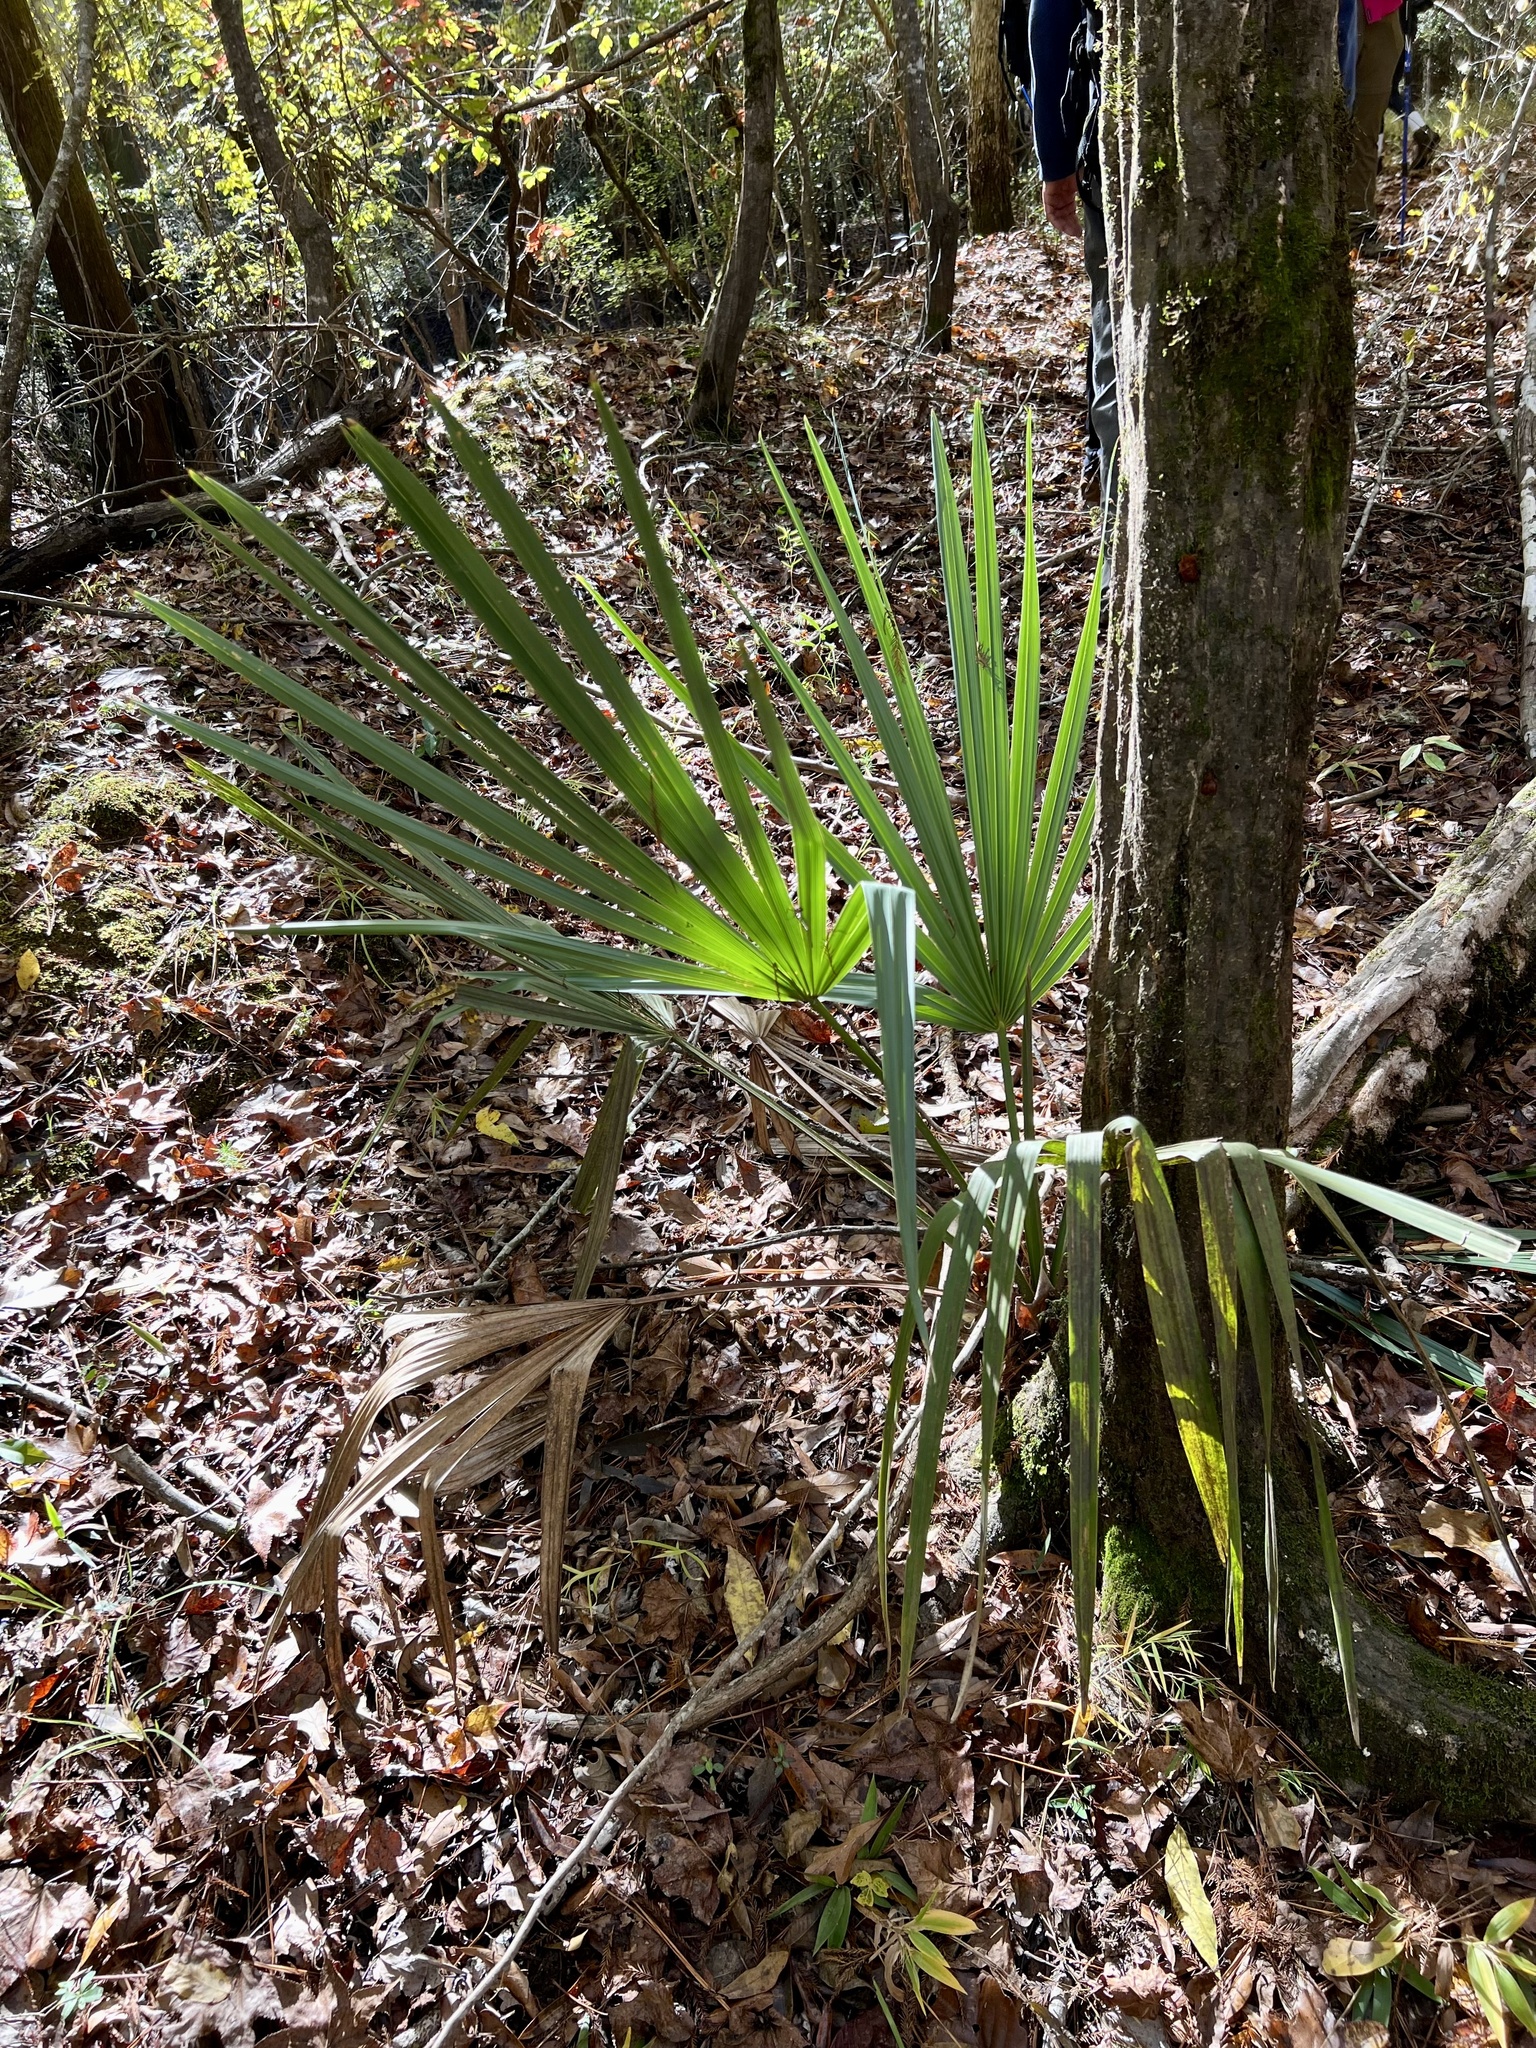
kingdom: Plantae
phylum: Tracheophyta
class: Liliopsida
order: Arecales
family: Arecaceae
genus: Sabal
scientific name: Sabal minor
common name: Dwarf palmetto
